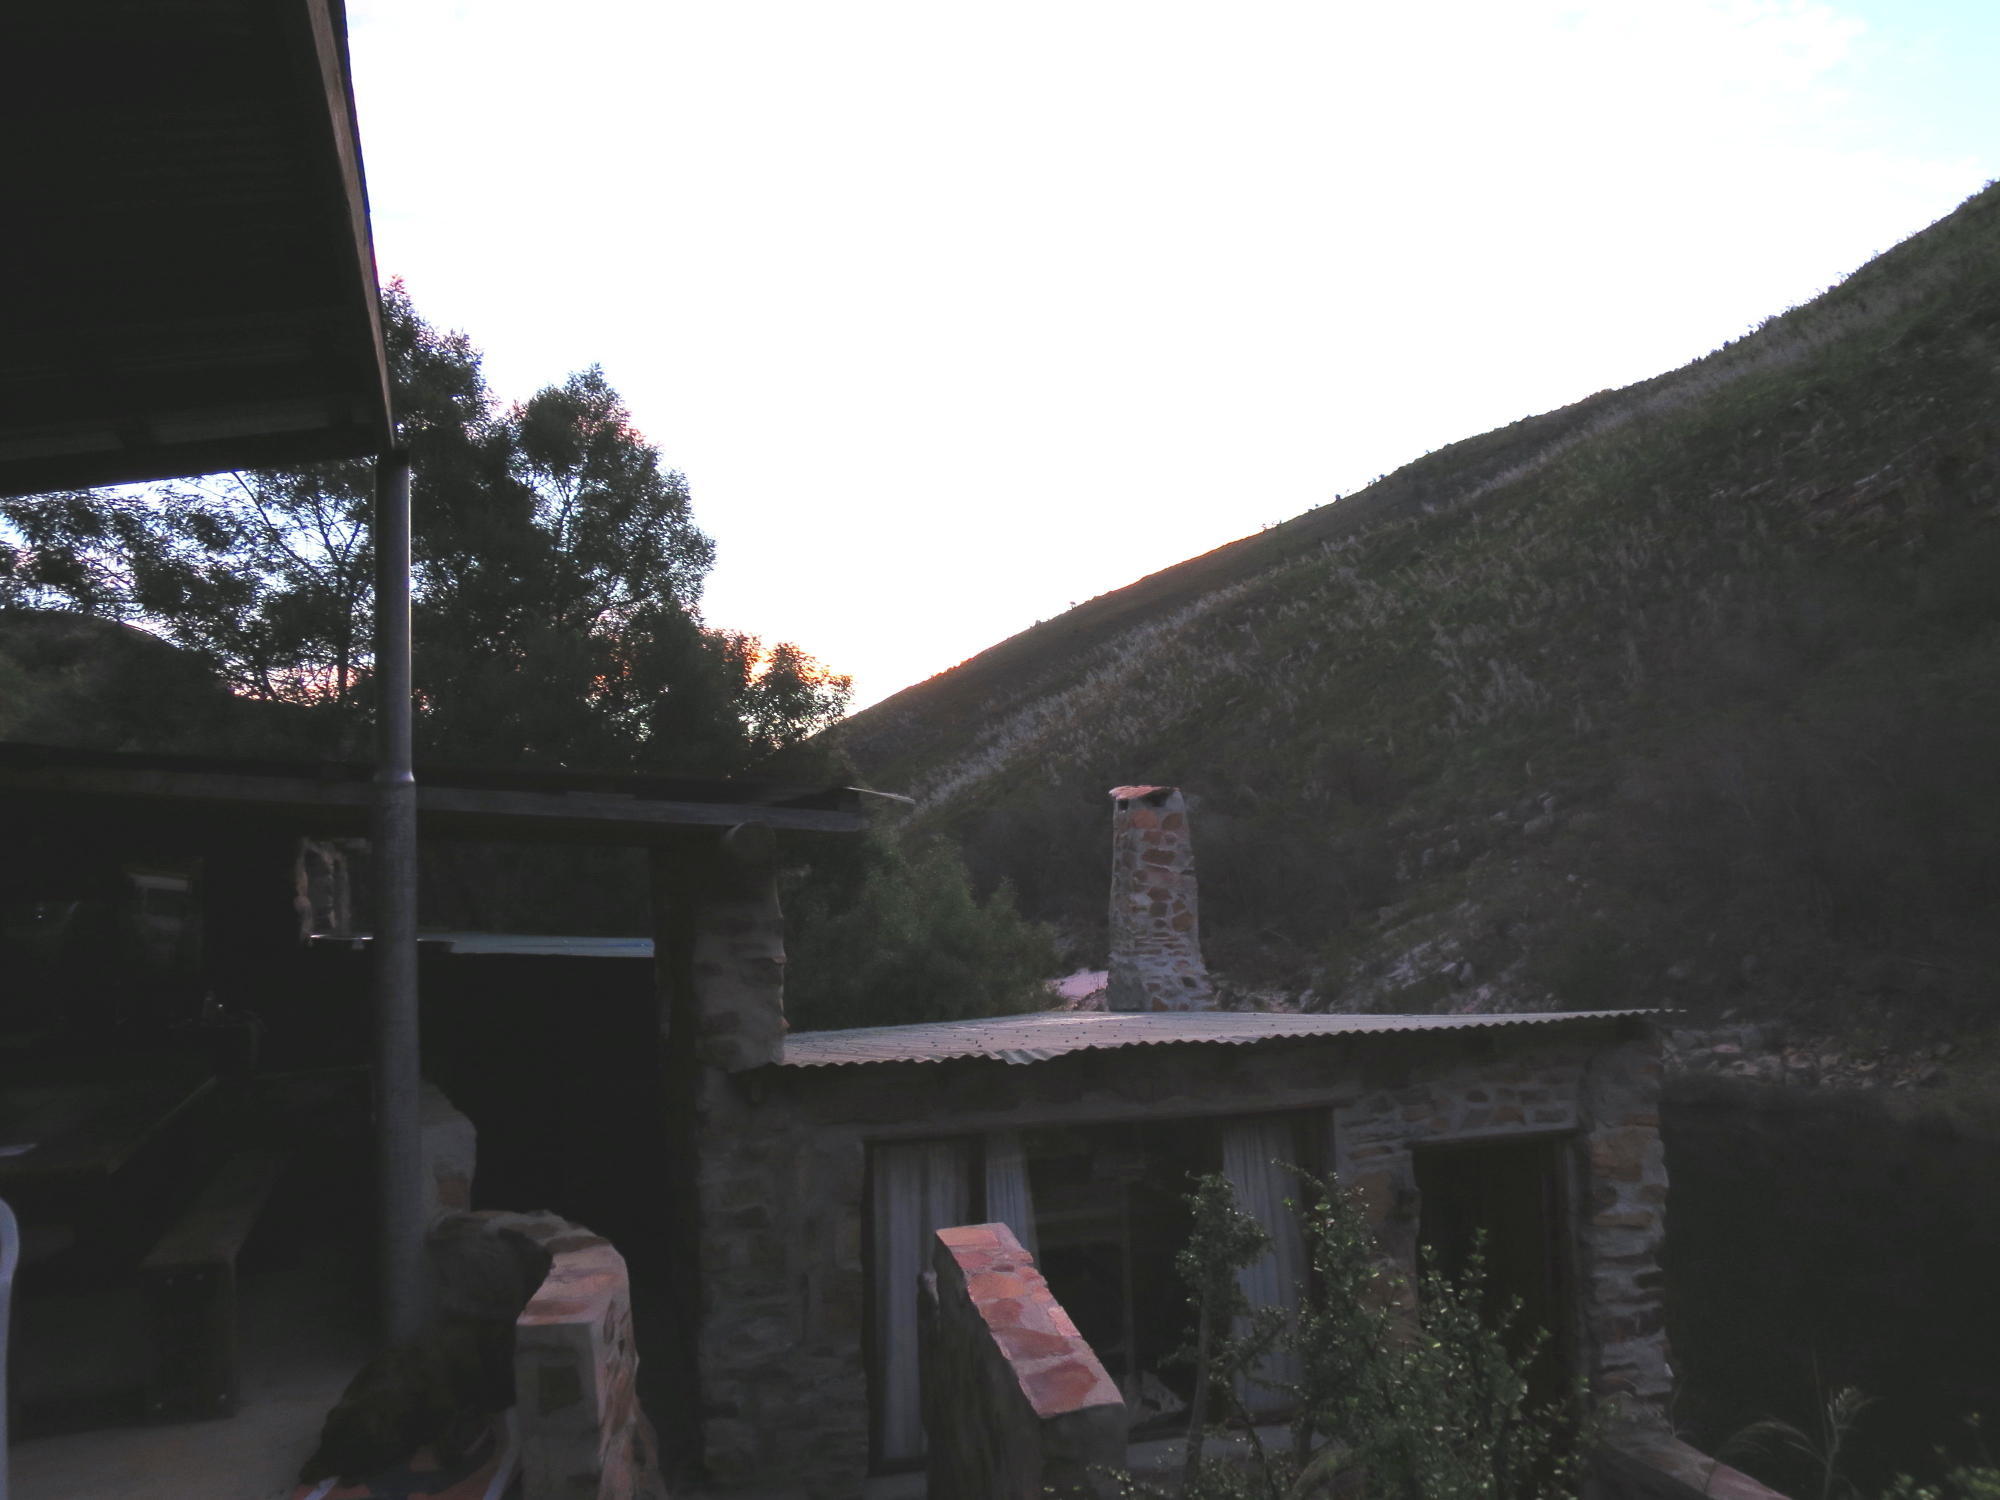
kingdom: Plantae
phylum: Tracheophyta
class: Magnoliopsida
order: Fabales
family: Fabaceae
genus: Acacia
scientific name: Acacia mearnsii
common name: Black wattle
